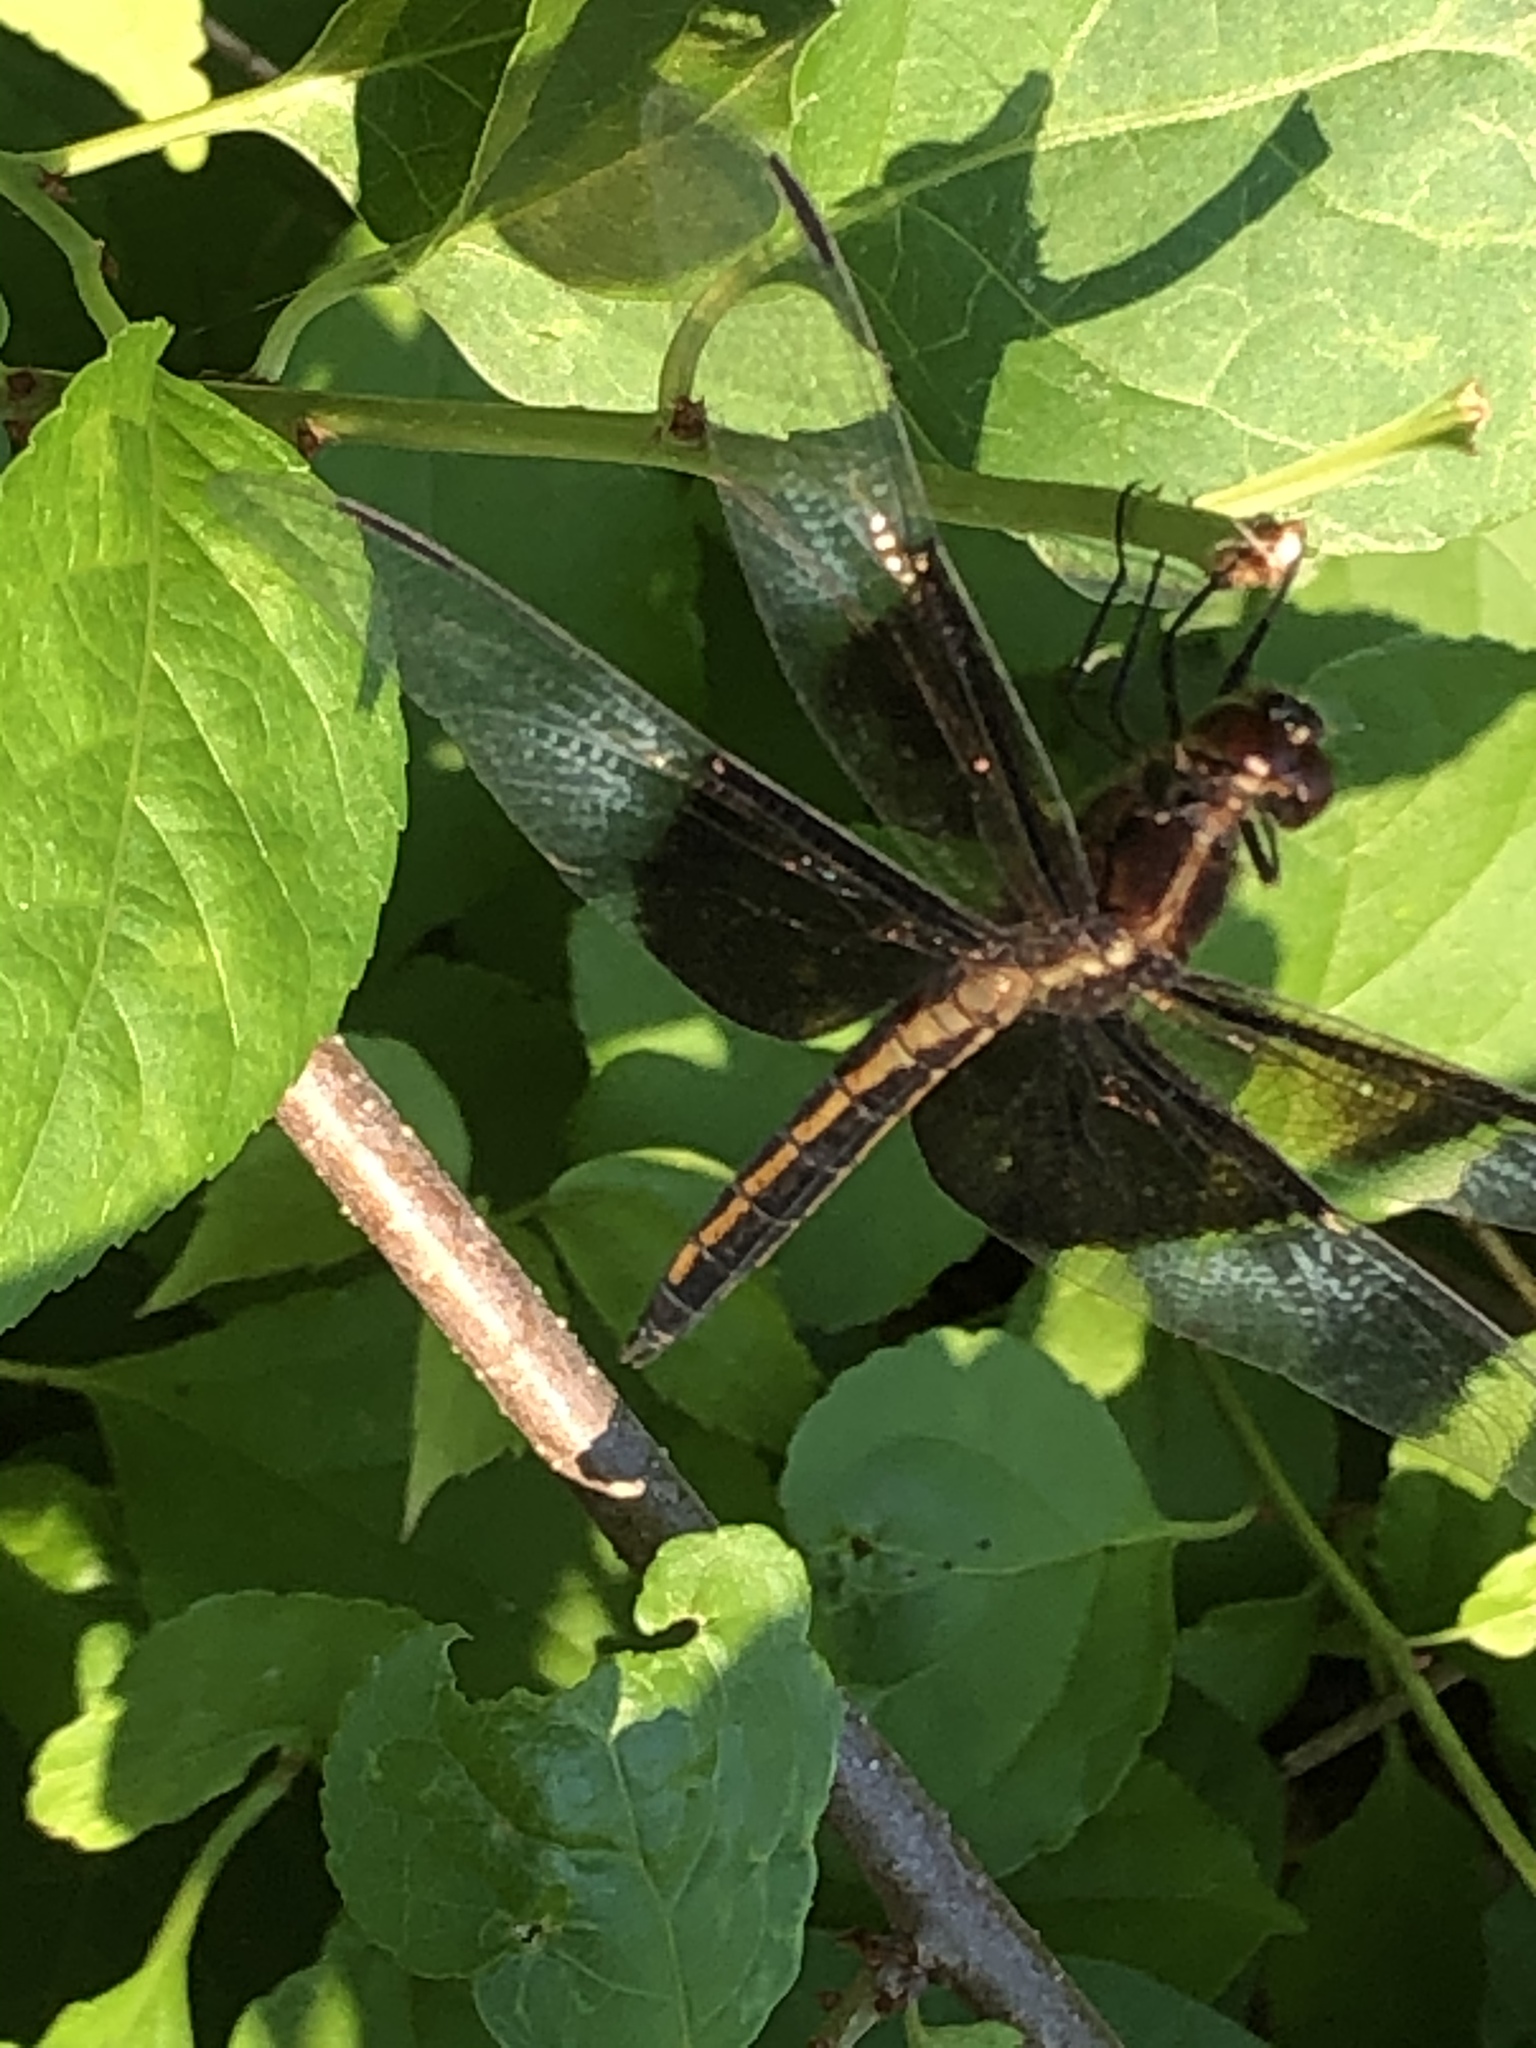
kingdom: Animalia
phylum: Arthropoda
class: Insecta
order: Odonata
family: Libellulidae
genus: Libellula
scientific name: Libellula luctuosa
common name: Widow skimmer
